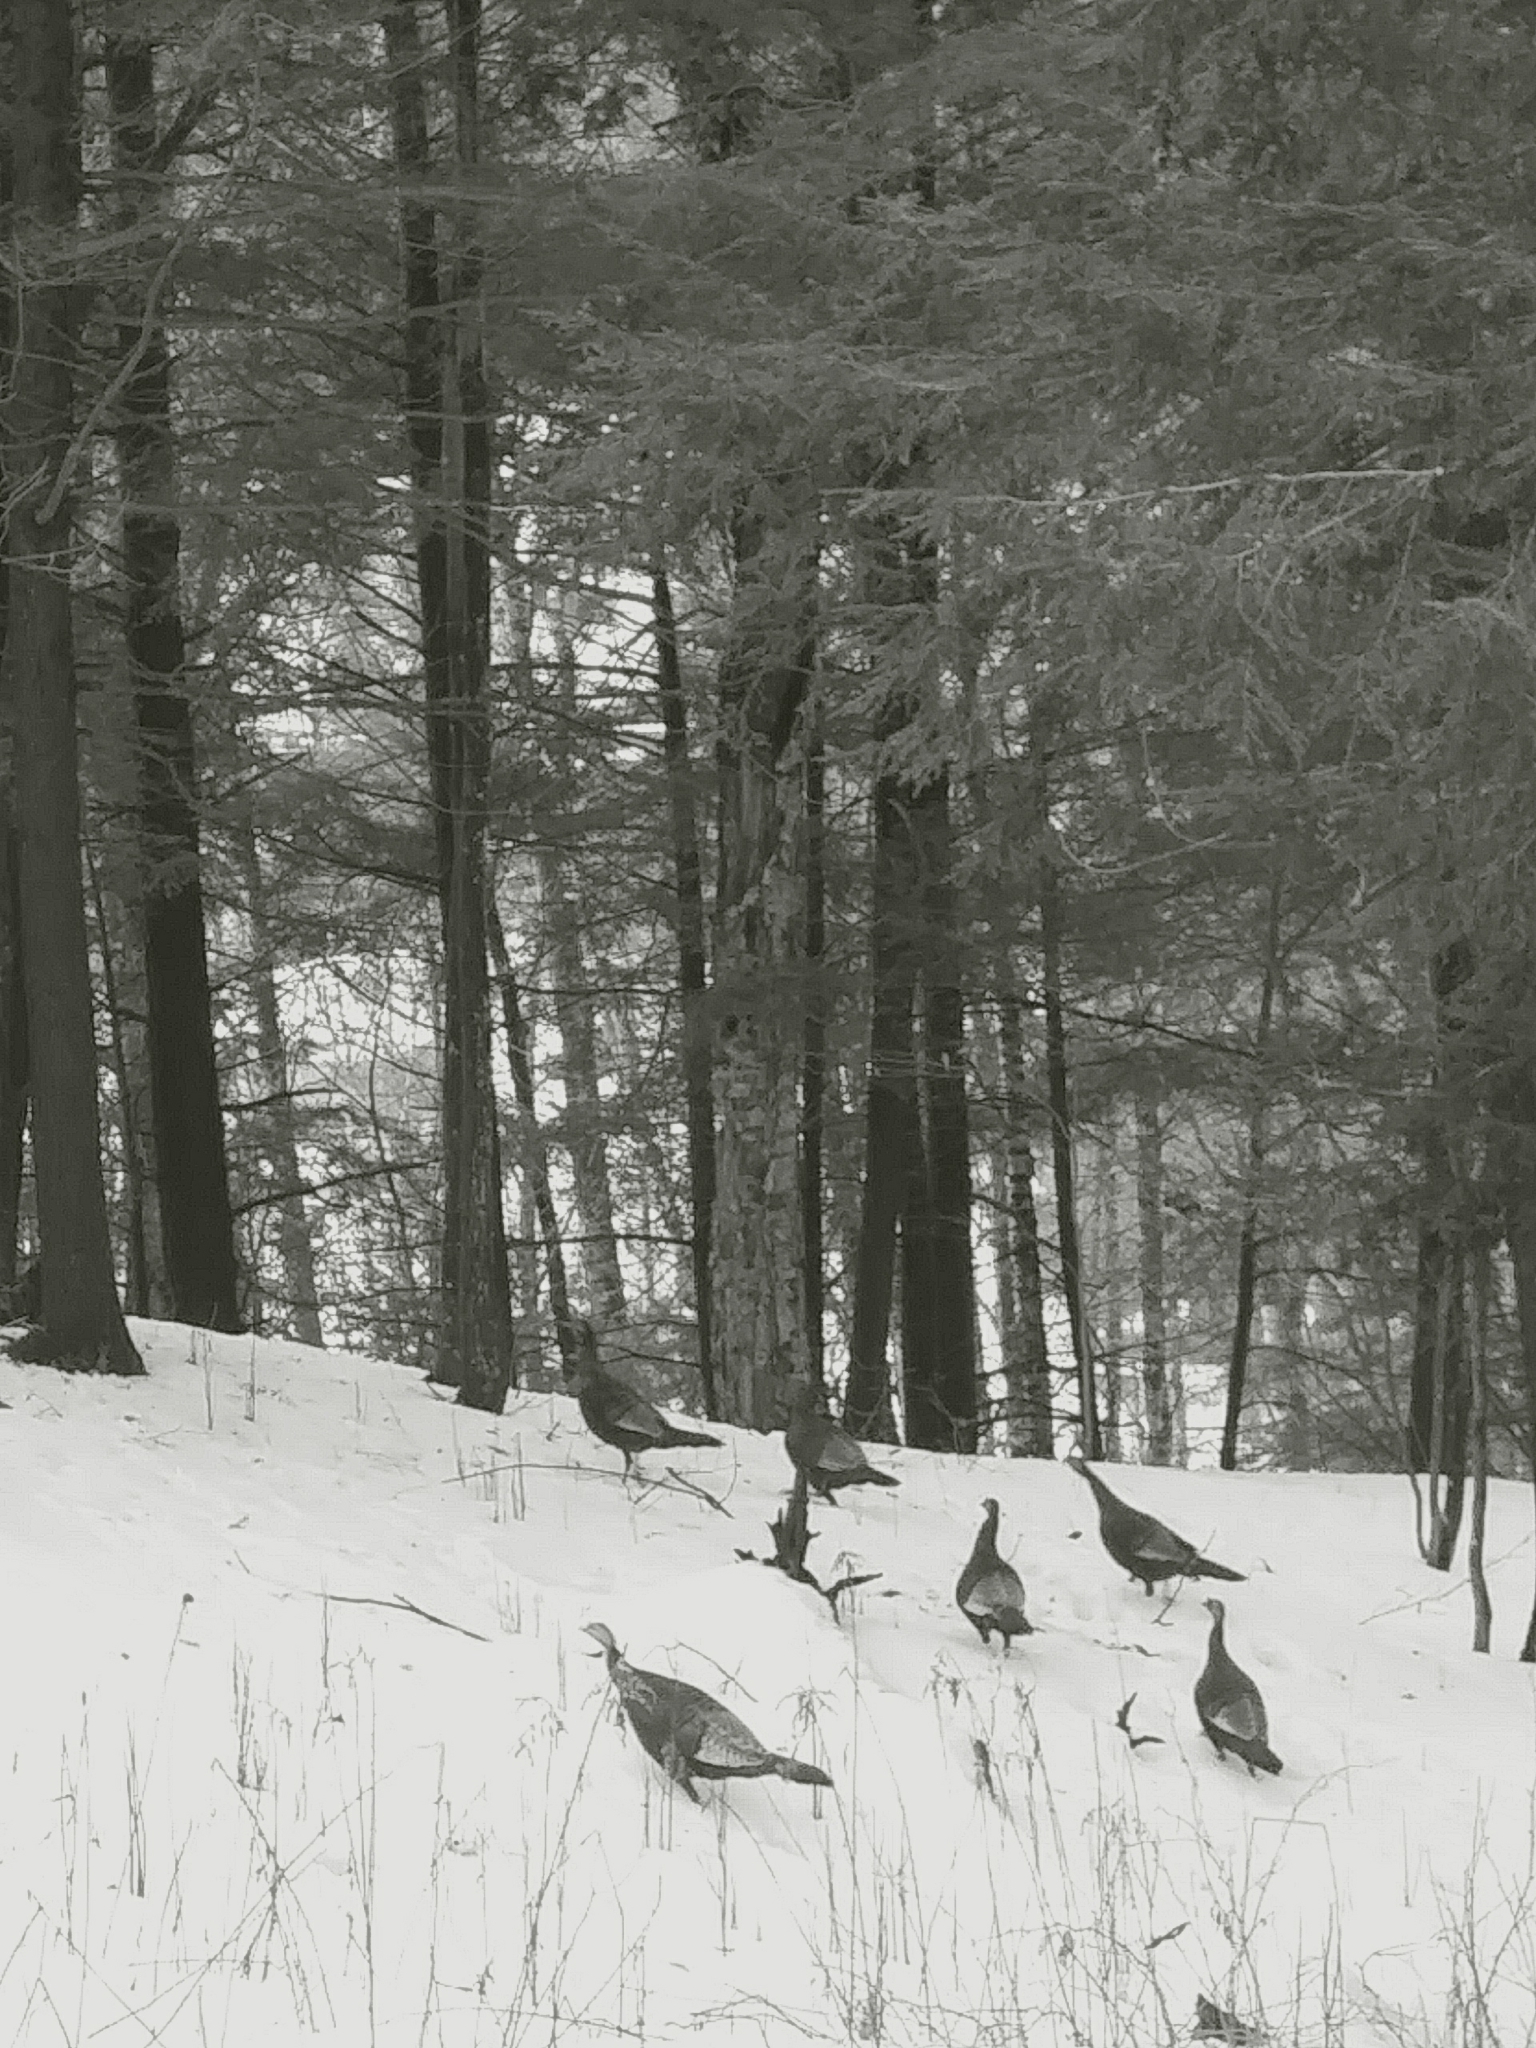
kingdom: Animalia
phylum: Chordata
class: Aves
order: Galliformes
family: Phasianidae
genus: Meleagris
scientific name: Meleagris gallopavo
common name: Wild turkey
